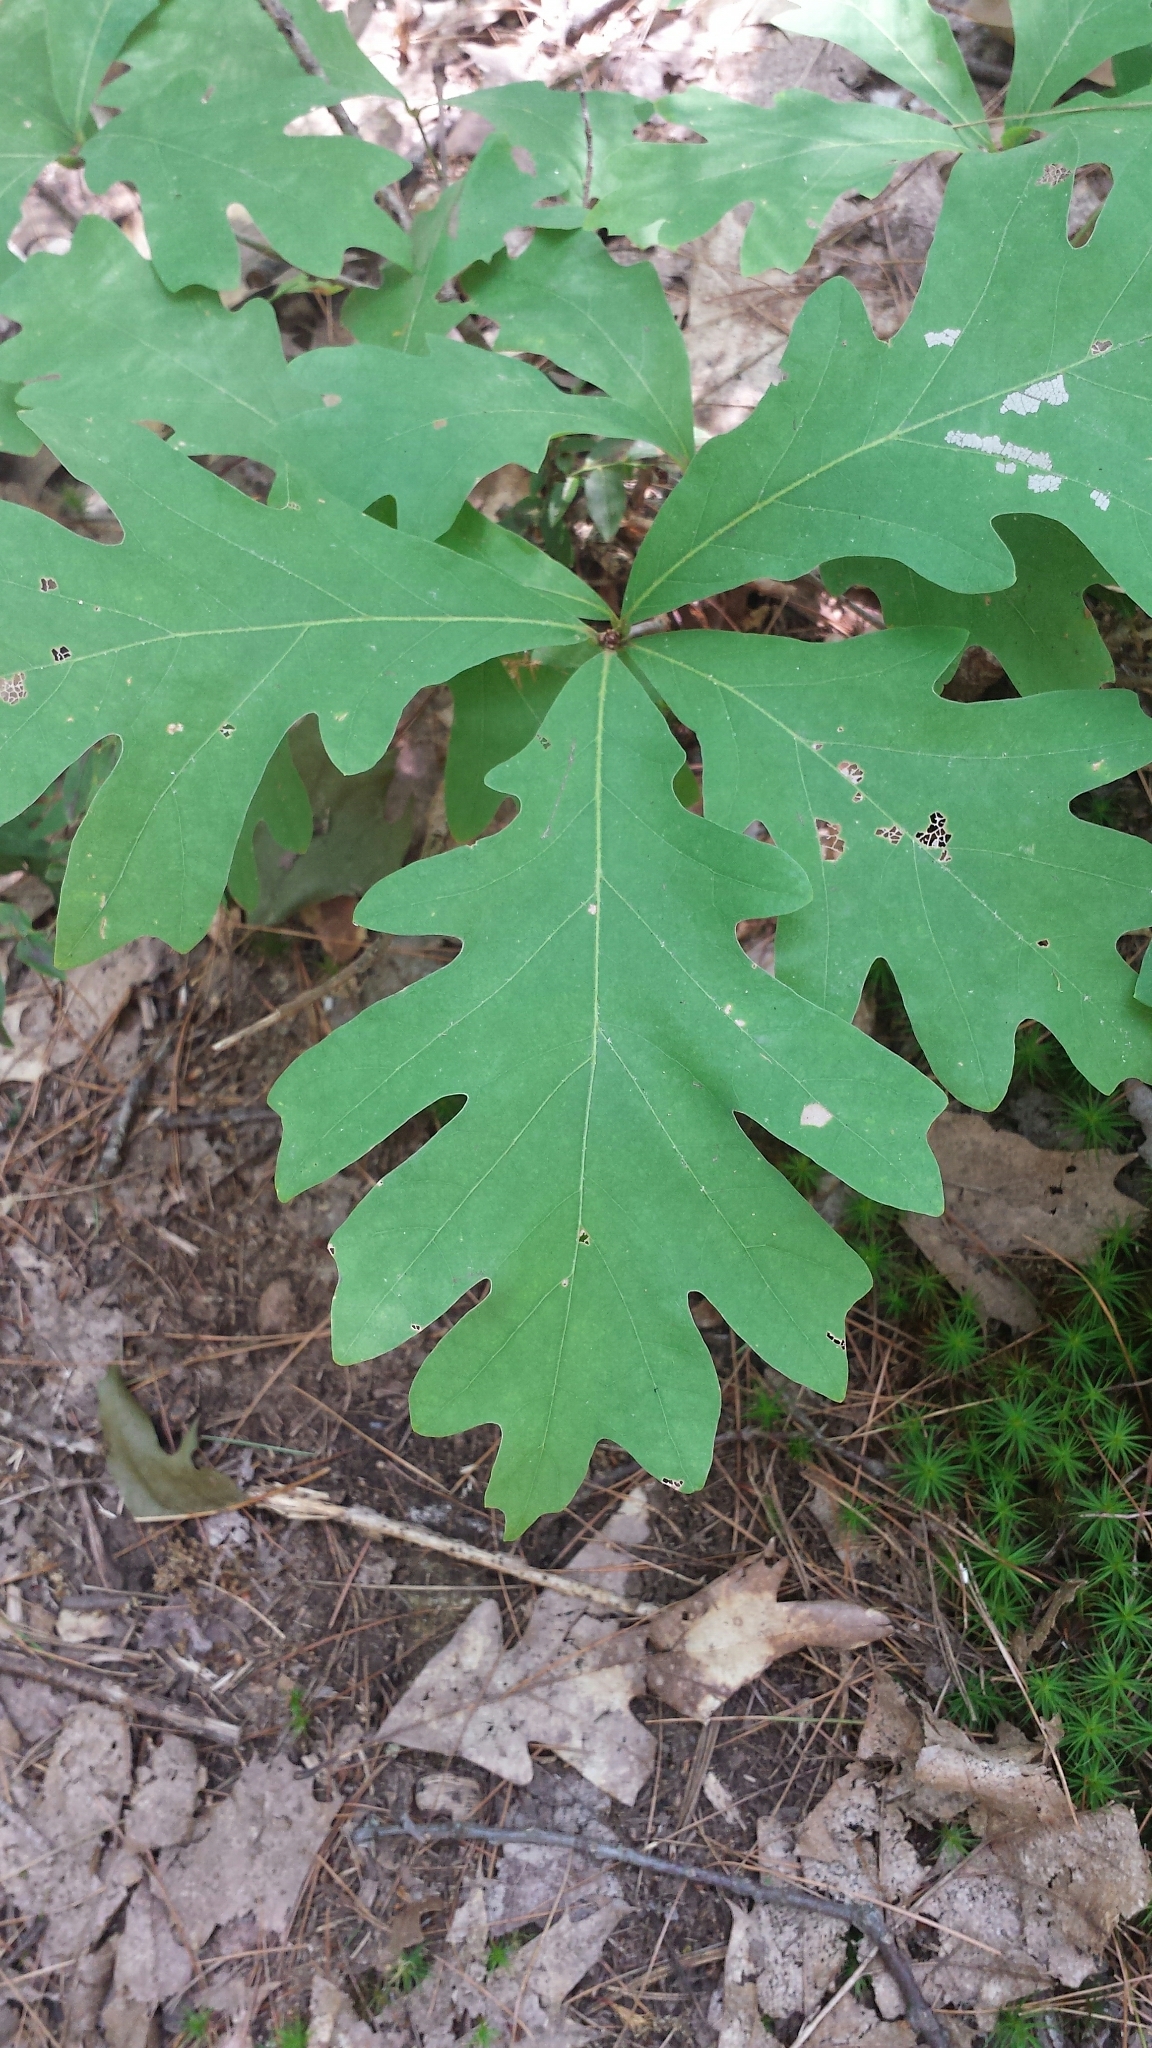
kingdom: Plantae
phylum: Tracheophyta
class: Magnoliopsida
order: Fagales
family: Fagaceae
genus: Quercus
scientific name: Quercus alba
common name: White oak
